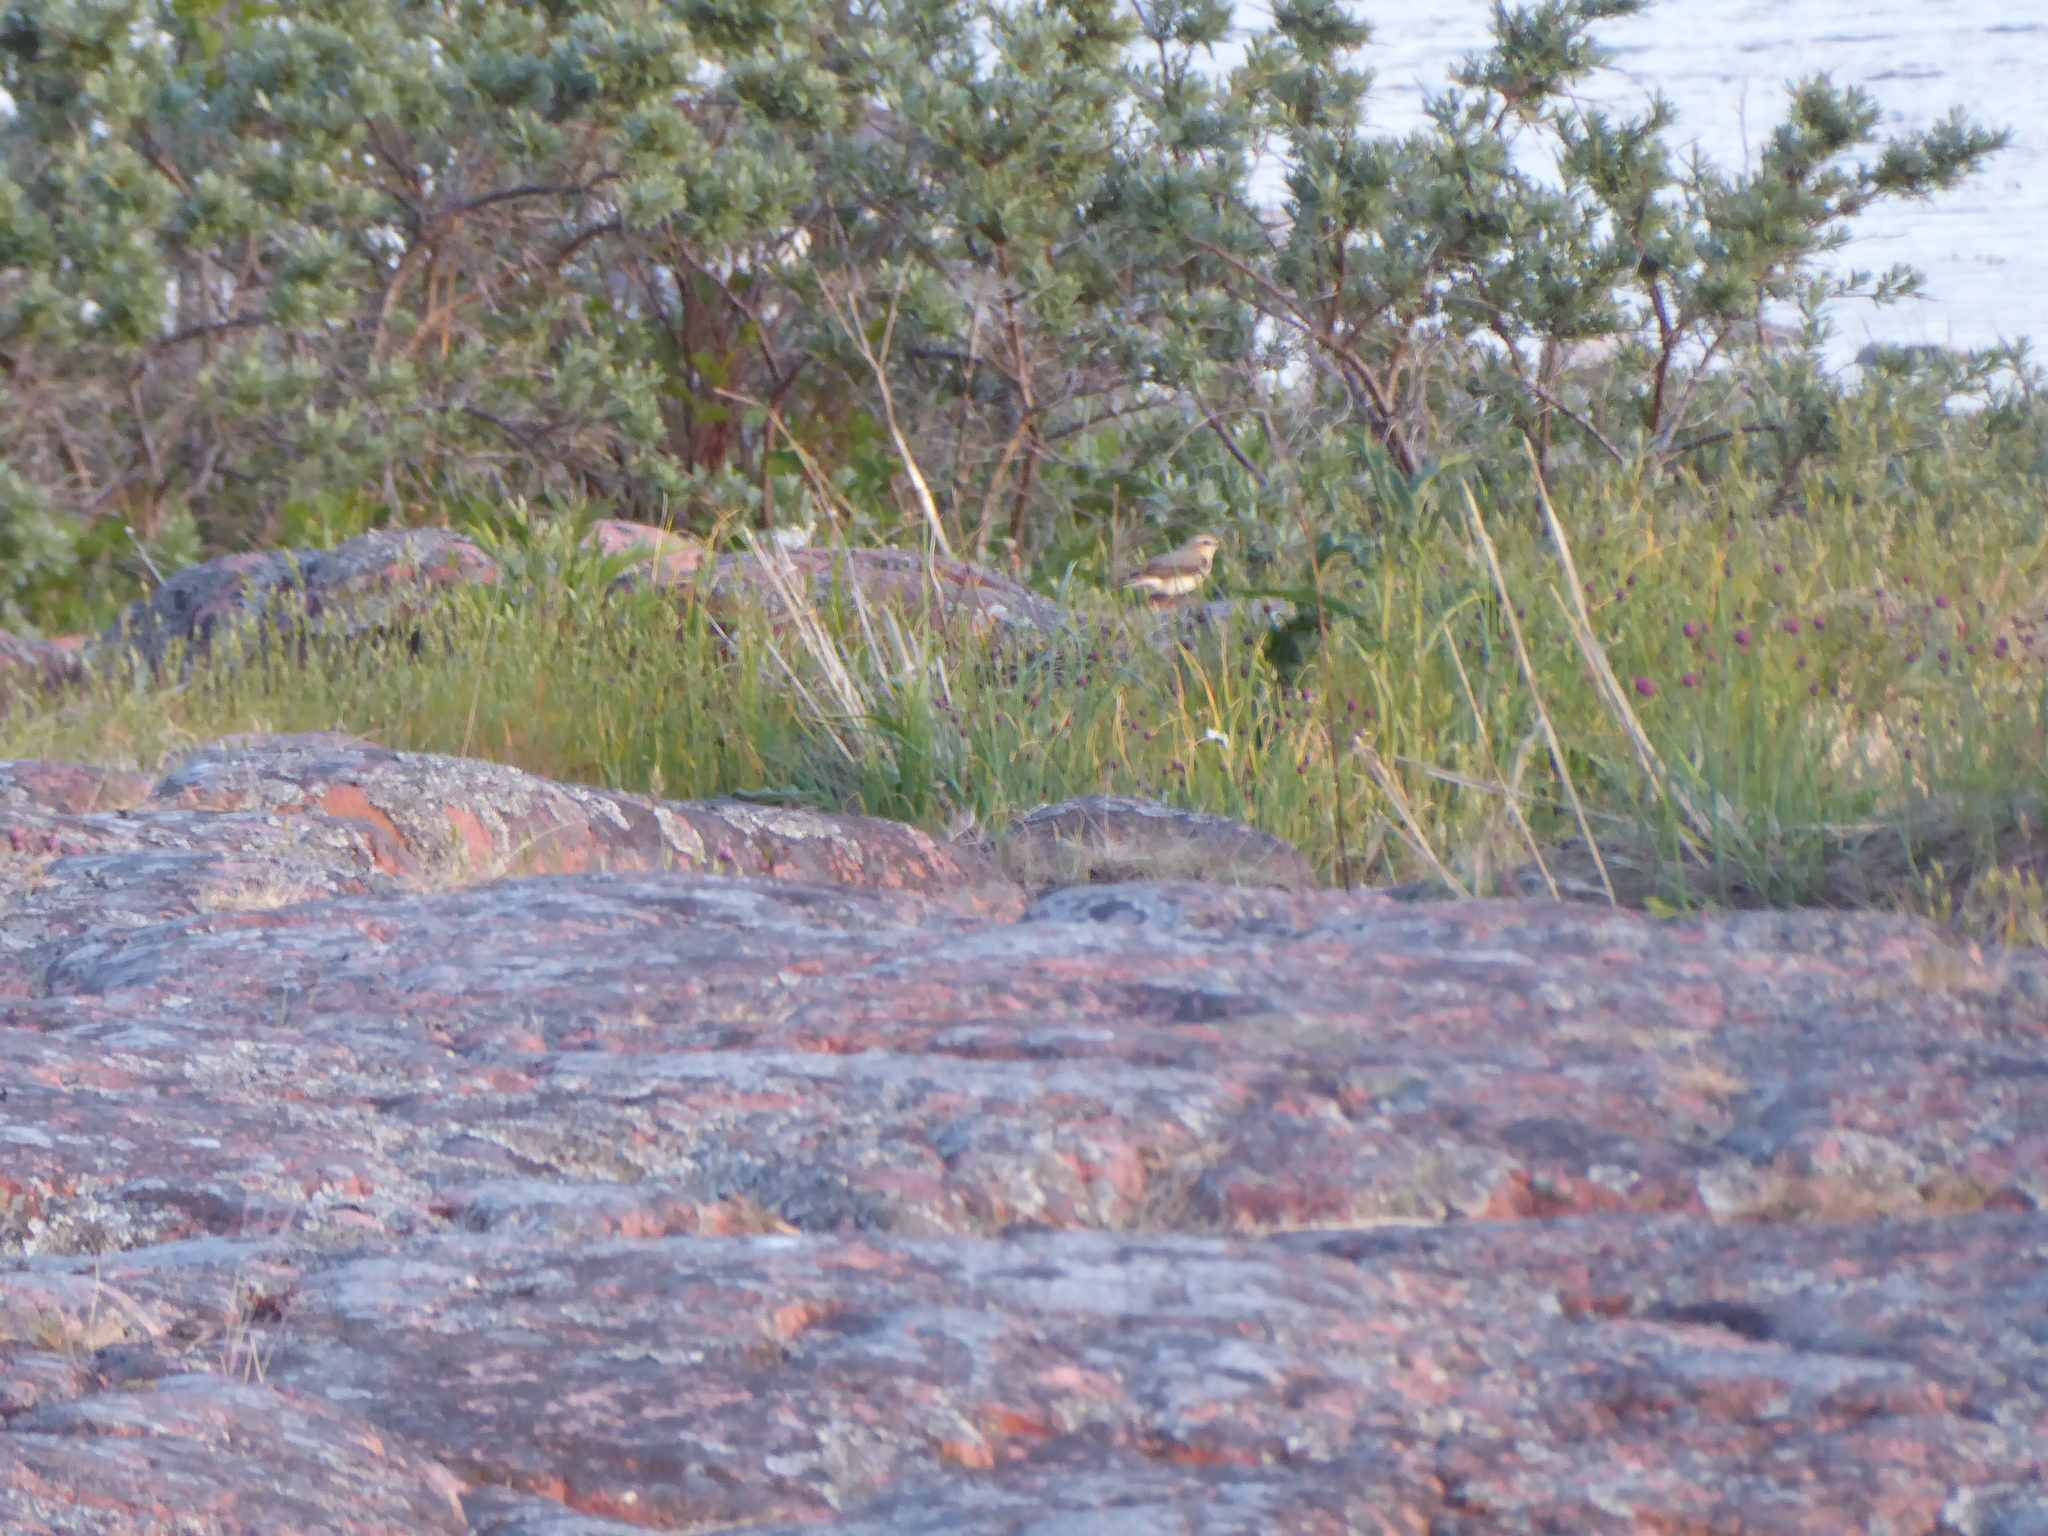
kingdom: Animalia
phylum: Chordata
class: Aves
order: Passeriformes
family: Muscicapidae
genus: Oenanthe
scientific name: Oenanthe oenanthe
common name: Northern wheatear
